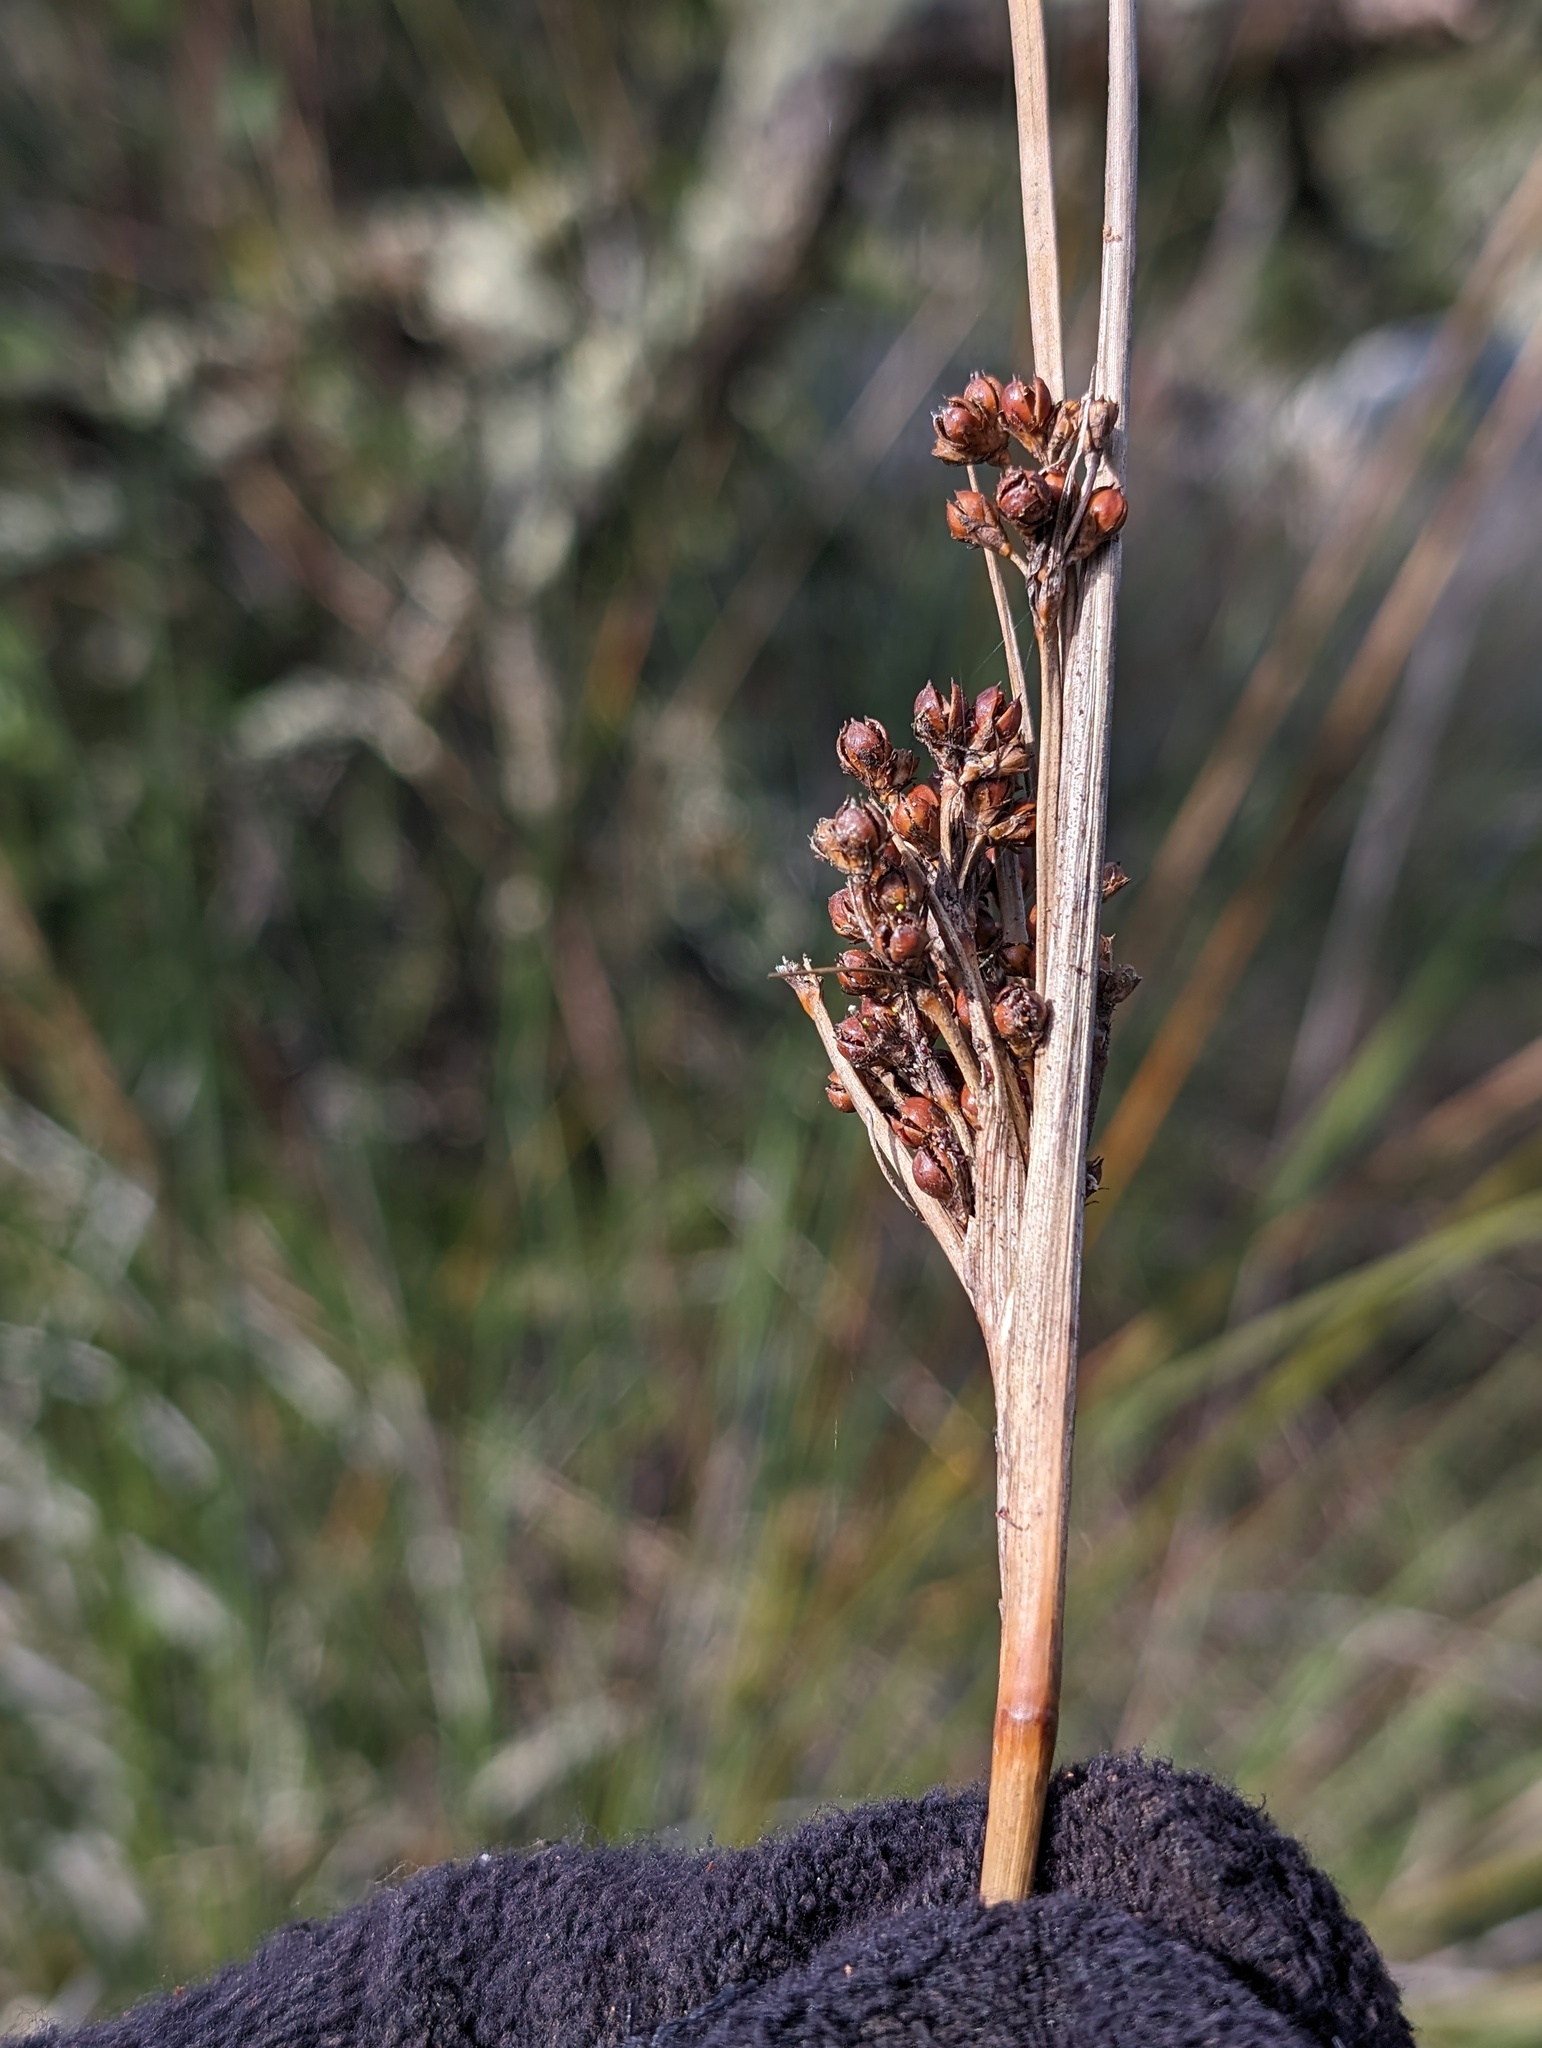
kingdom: Plantae
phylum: Tracheophyta
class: Liliopsida
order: Poales
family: Juncaceae
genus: Juncus
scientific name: Juncus acutus
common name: Sharp rush
